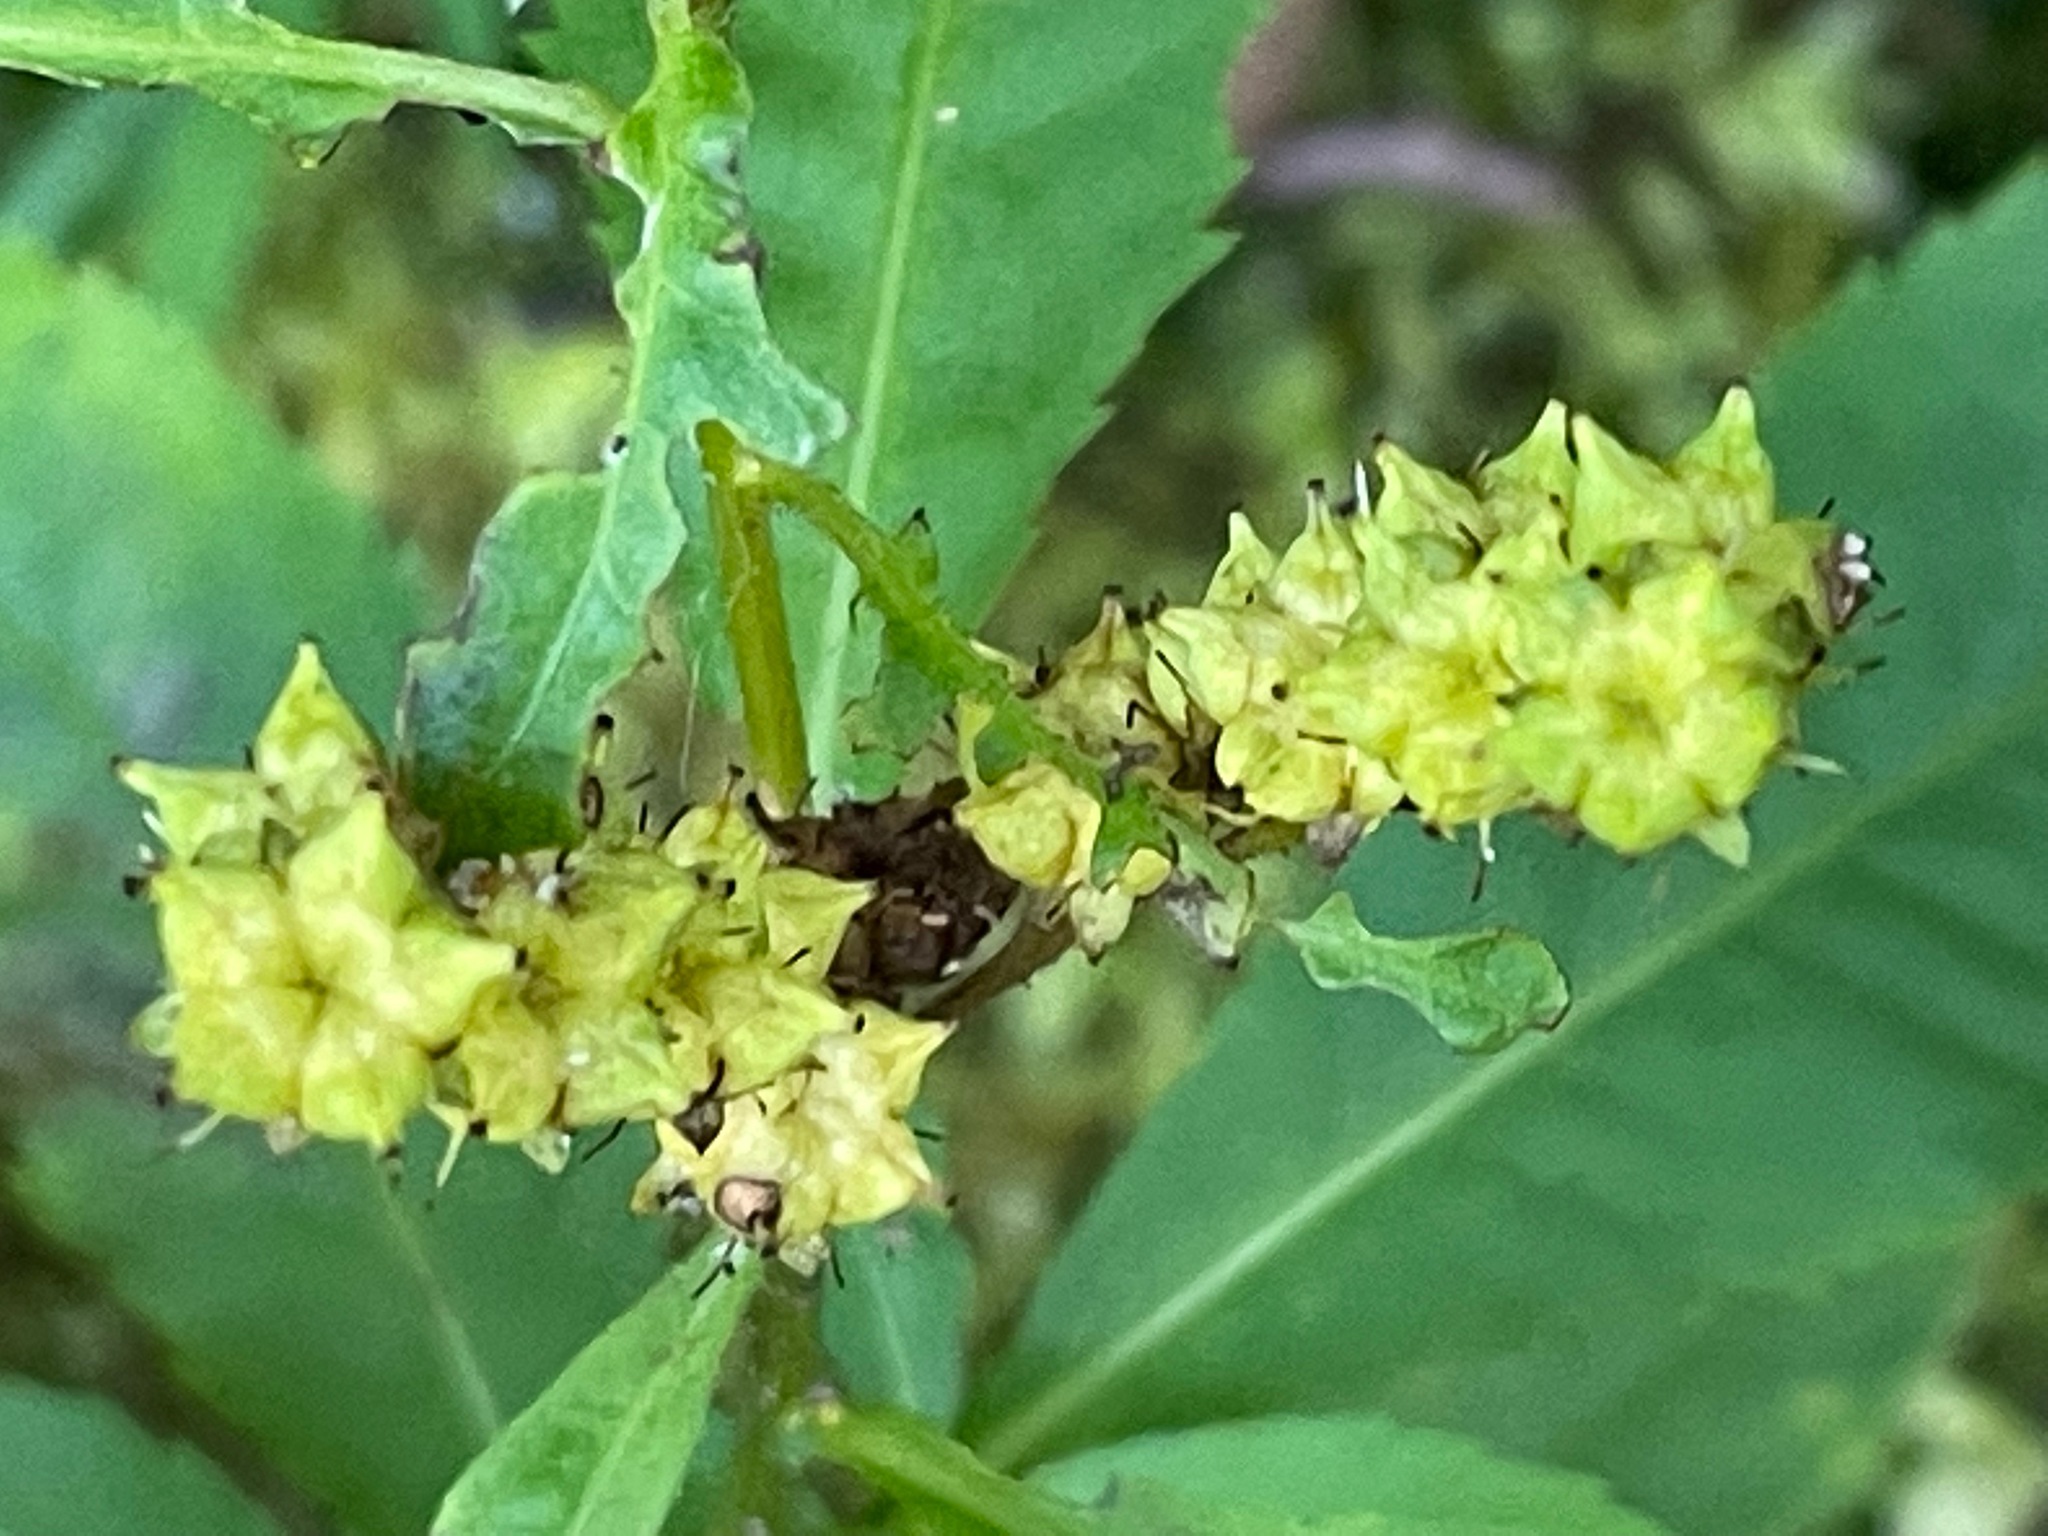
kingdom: Plantae
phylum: Tracheophyta
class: Magnoliopsida
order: Saxifragales
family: Penthoraceae
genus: Penthorum
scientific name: Penthorum sedoides
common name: Ditch stonecrop
